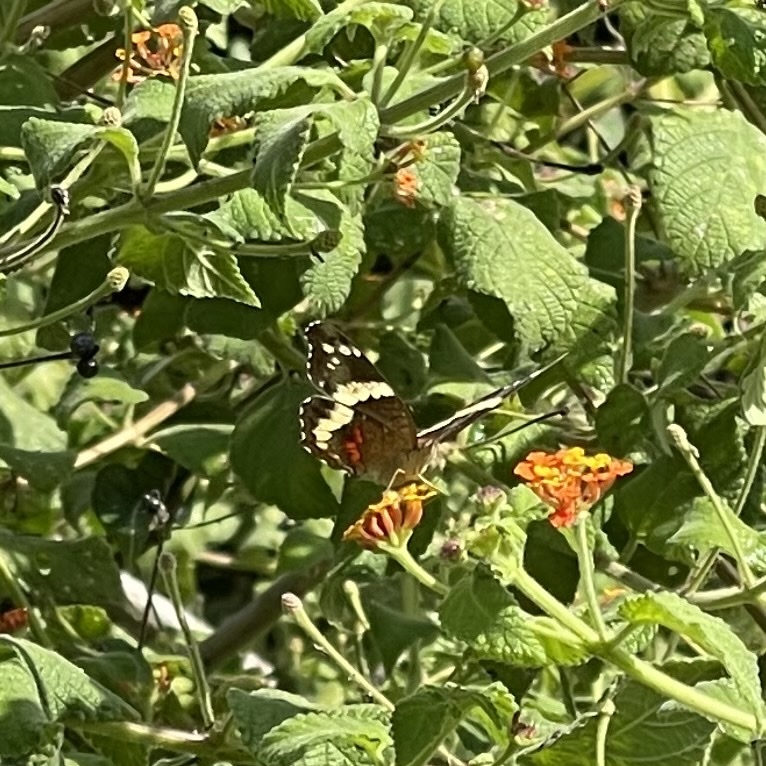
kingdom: Animalia
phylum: Arthropoda
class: Insecta
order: Lepidoptera
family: Nymphalidae
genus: Anartia
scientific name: Anartia fatima
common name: Banded peacock
